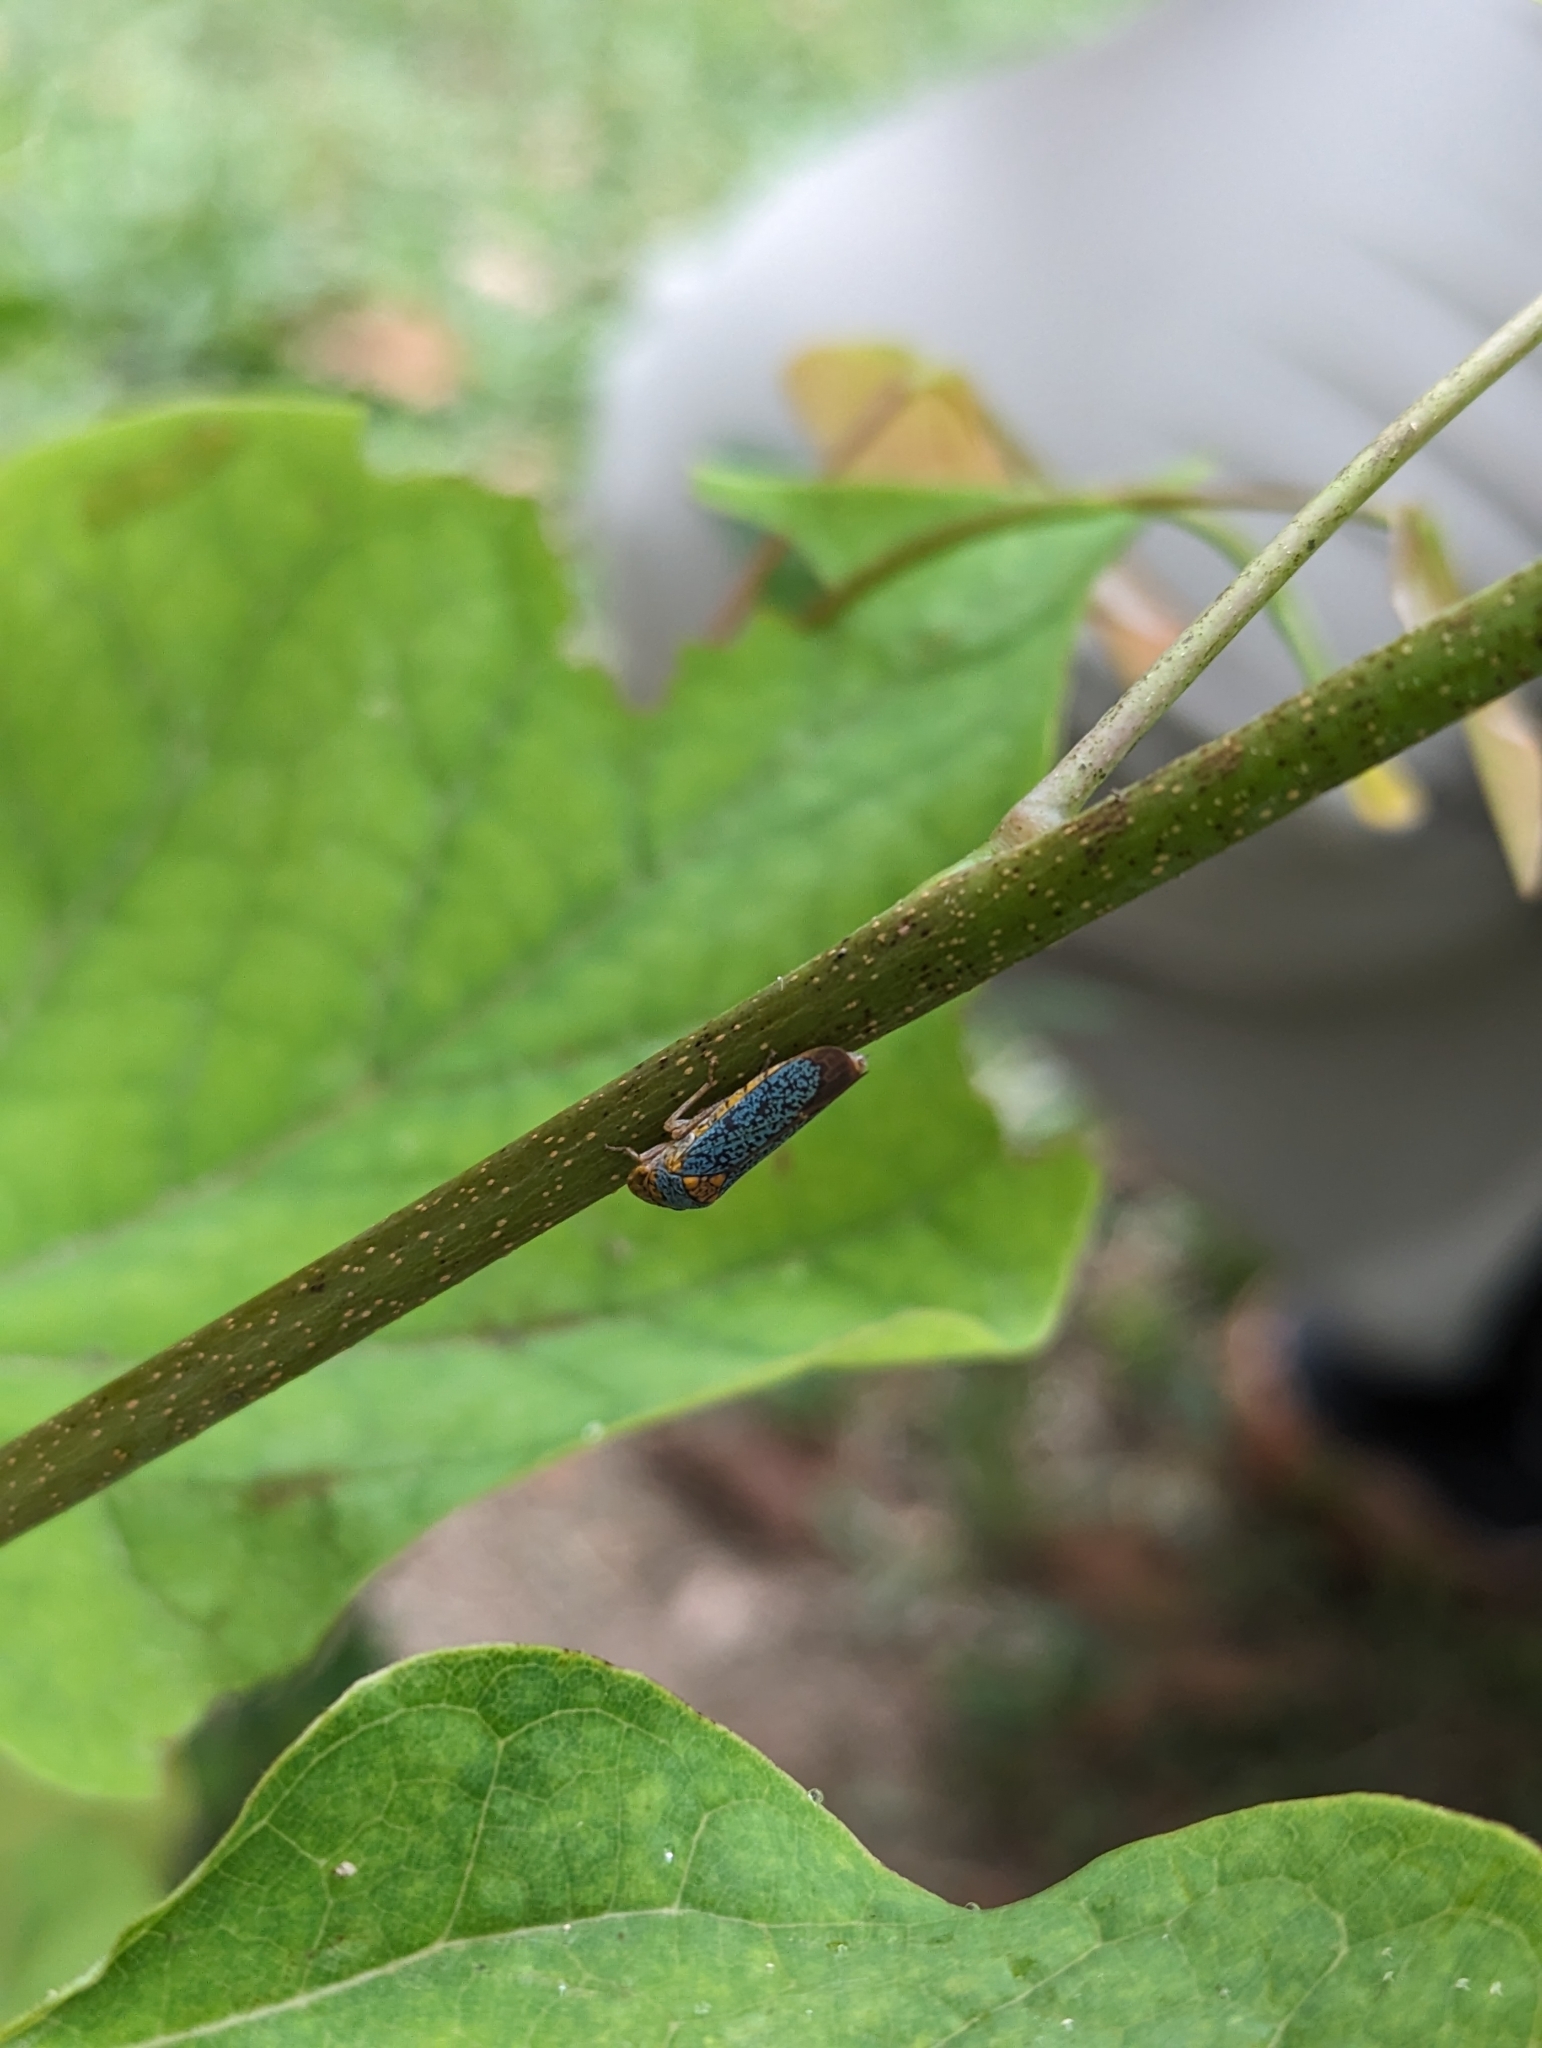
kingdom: Animalia
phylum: Arthropoda
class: Insecta
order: Hemiptera
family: Cicadellidae
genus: Oncometopia
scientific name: Oncometopia orbona
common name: Broad-headed sharpshooter
